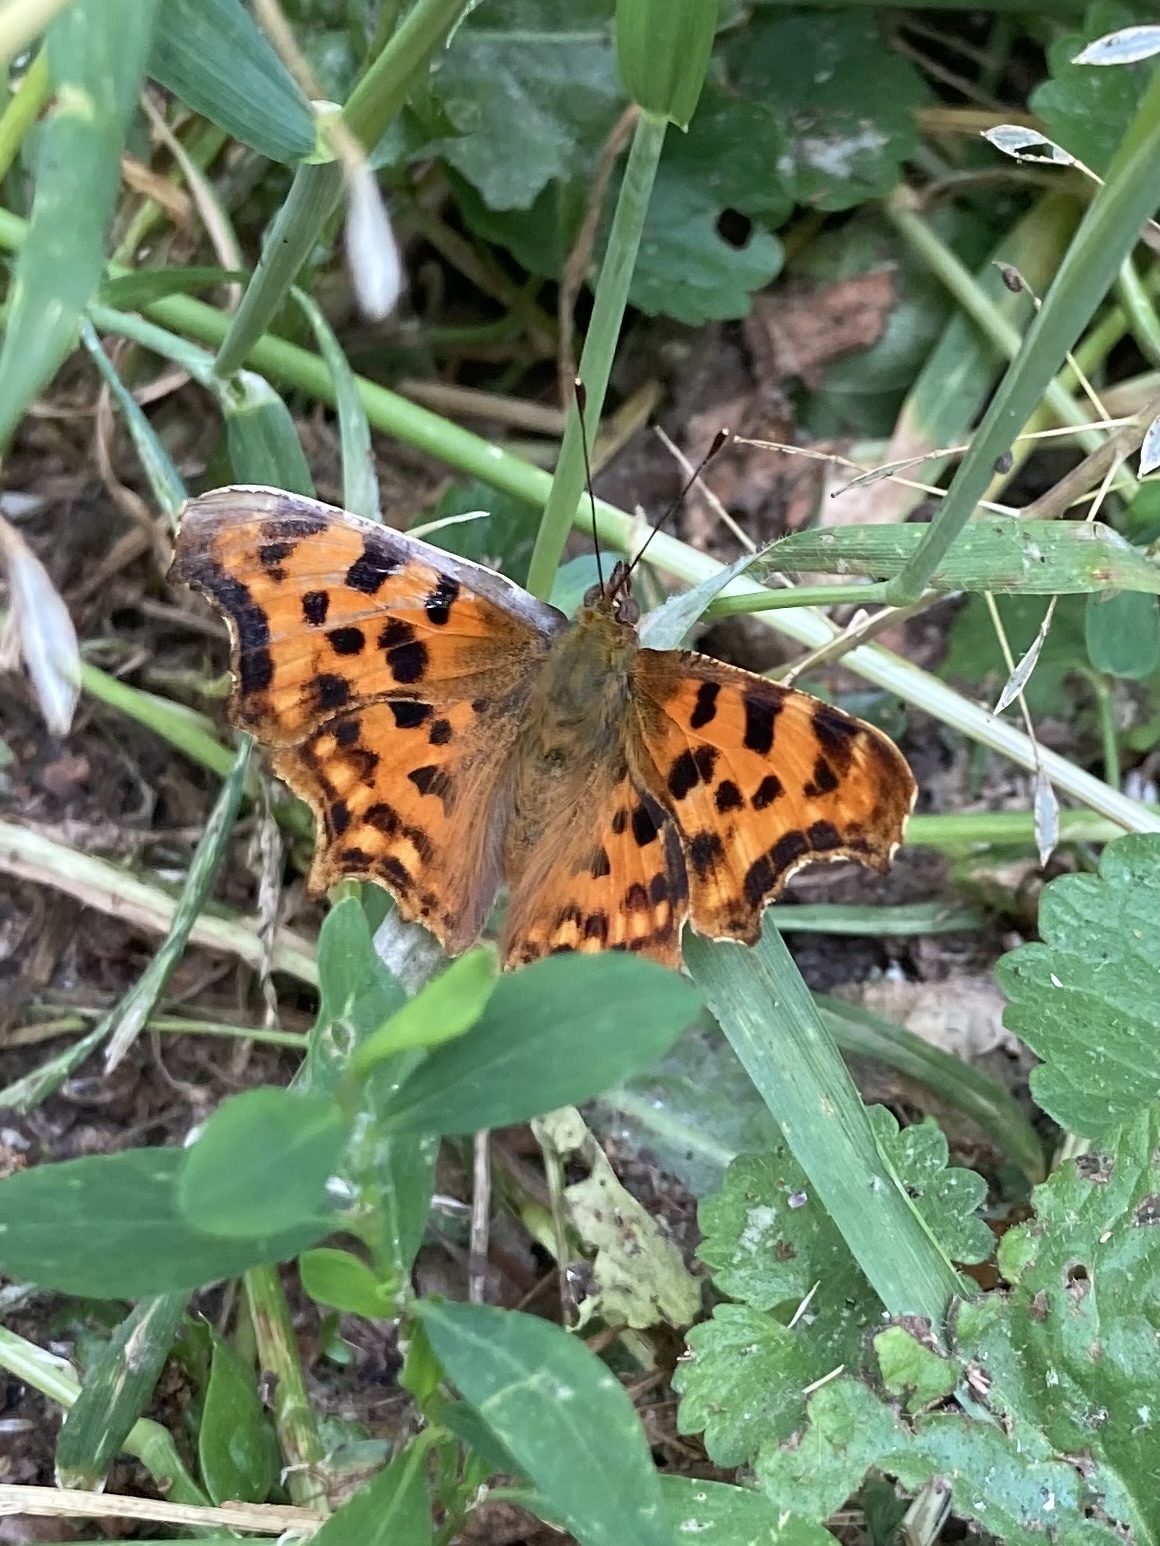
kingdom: Animalia
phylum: Arthropoda
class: Insecta
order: Lepidoptera
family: Nymphalidae
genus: Polygonia
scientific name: Polygonia c-album
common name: Comma
